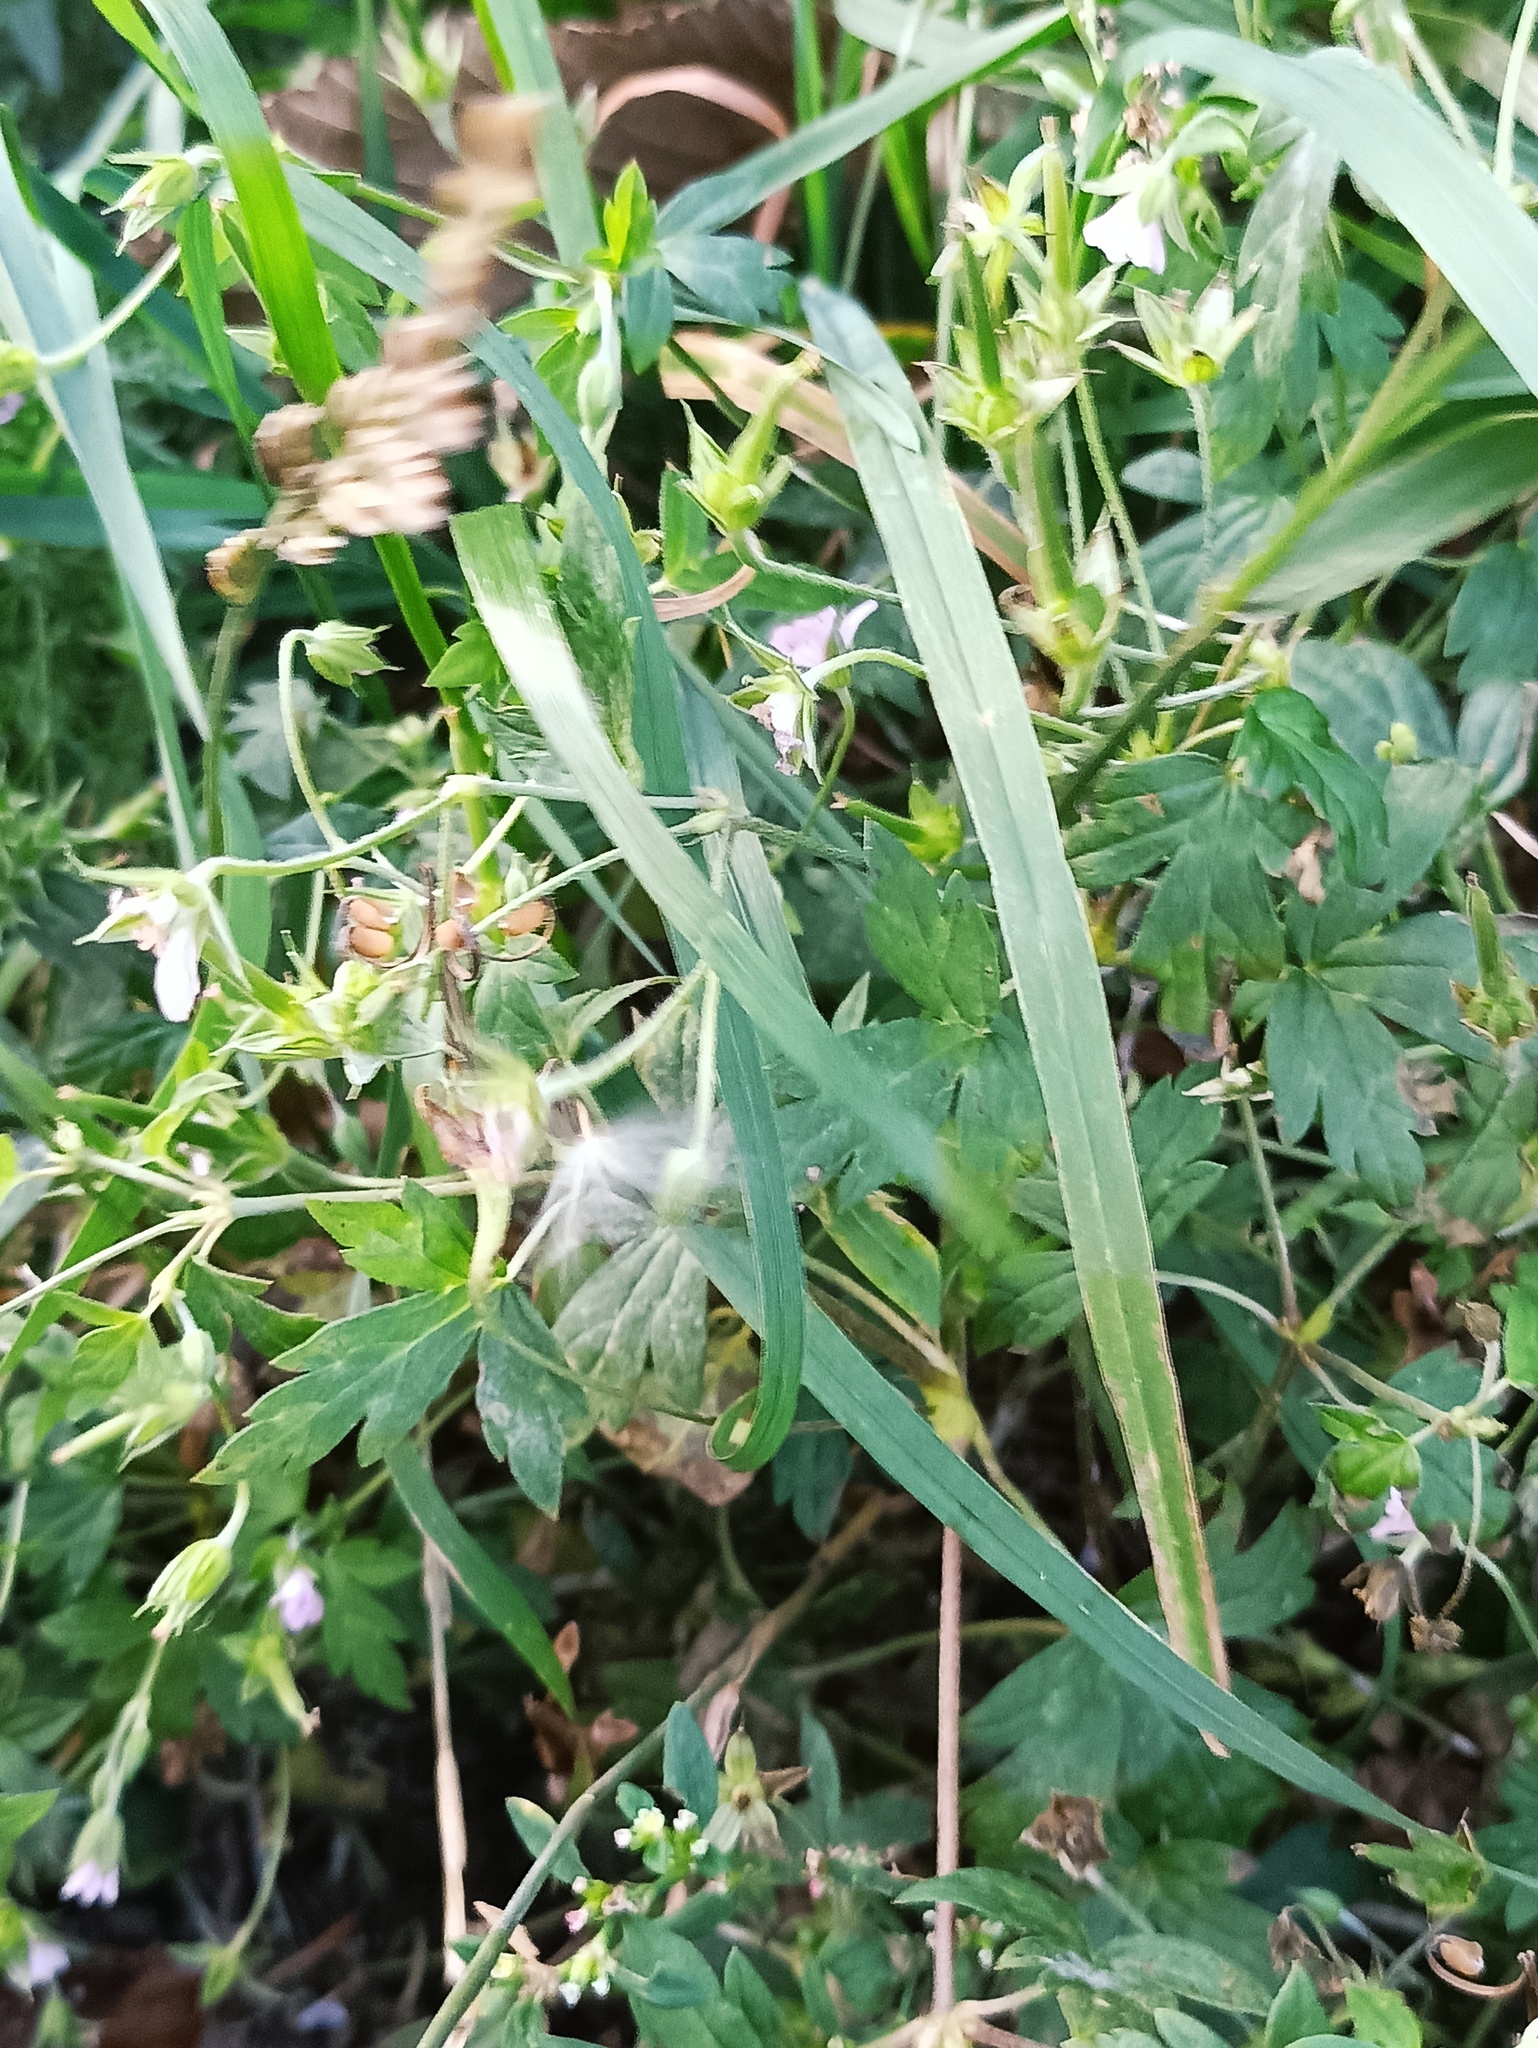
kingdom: Plantae
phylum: Tracheophyta
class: Magnoliopsida
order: Geraniales
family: Geraniaceae
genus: Geranium
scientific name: Geranium sibiricum
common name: Siberian crane's-bill
